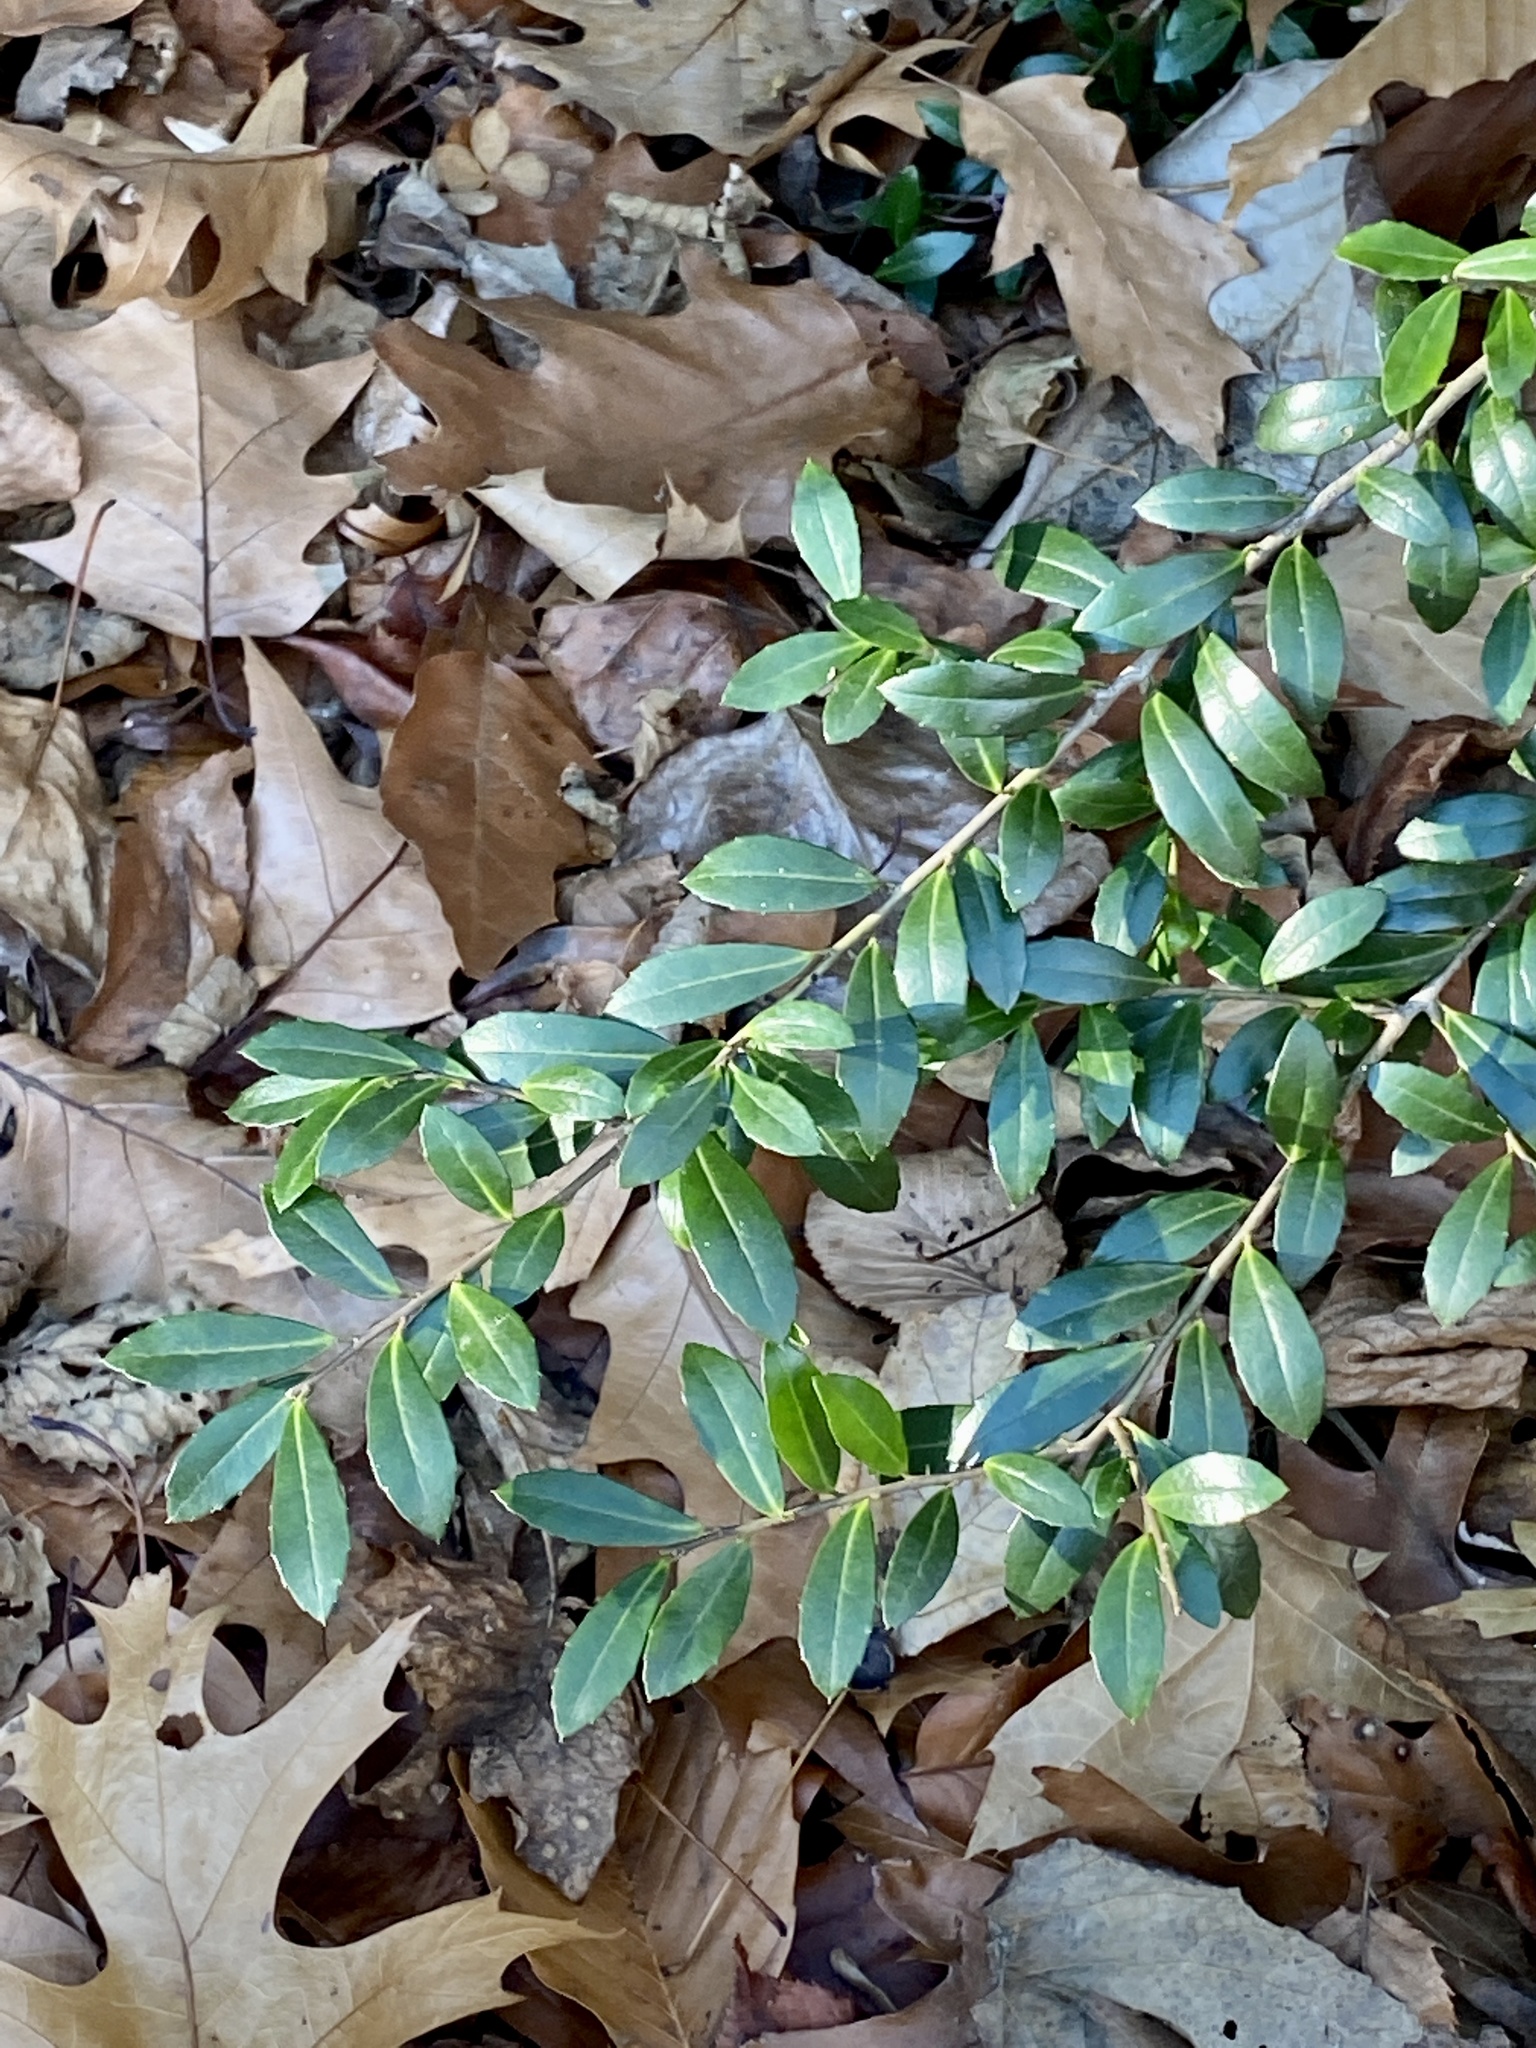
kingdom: Plantae
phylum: Tracheophyta
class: Magnoliopsida
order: Aquifoliales
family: Aquifoliaceae
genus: Ilex
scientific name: Ilex crenata
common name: Japanese holly
